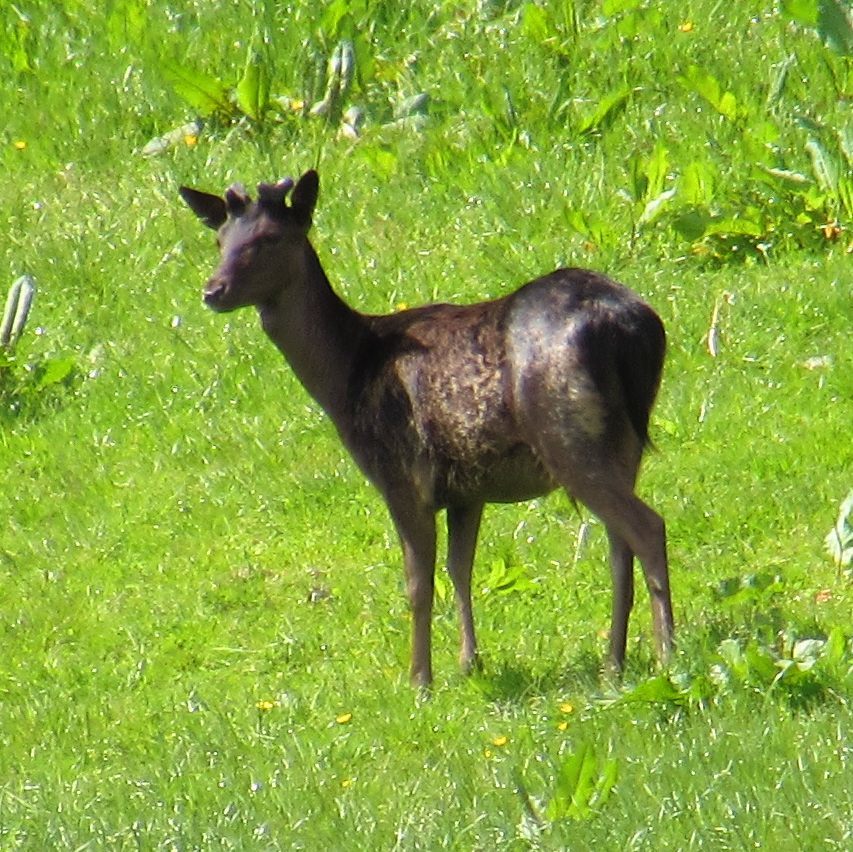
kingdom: Animalia
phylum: Chordata
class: Mammalia
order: Artiodactyla
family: Cervidae
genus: Dama
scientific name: Dama dama
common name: Fallow deer
